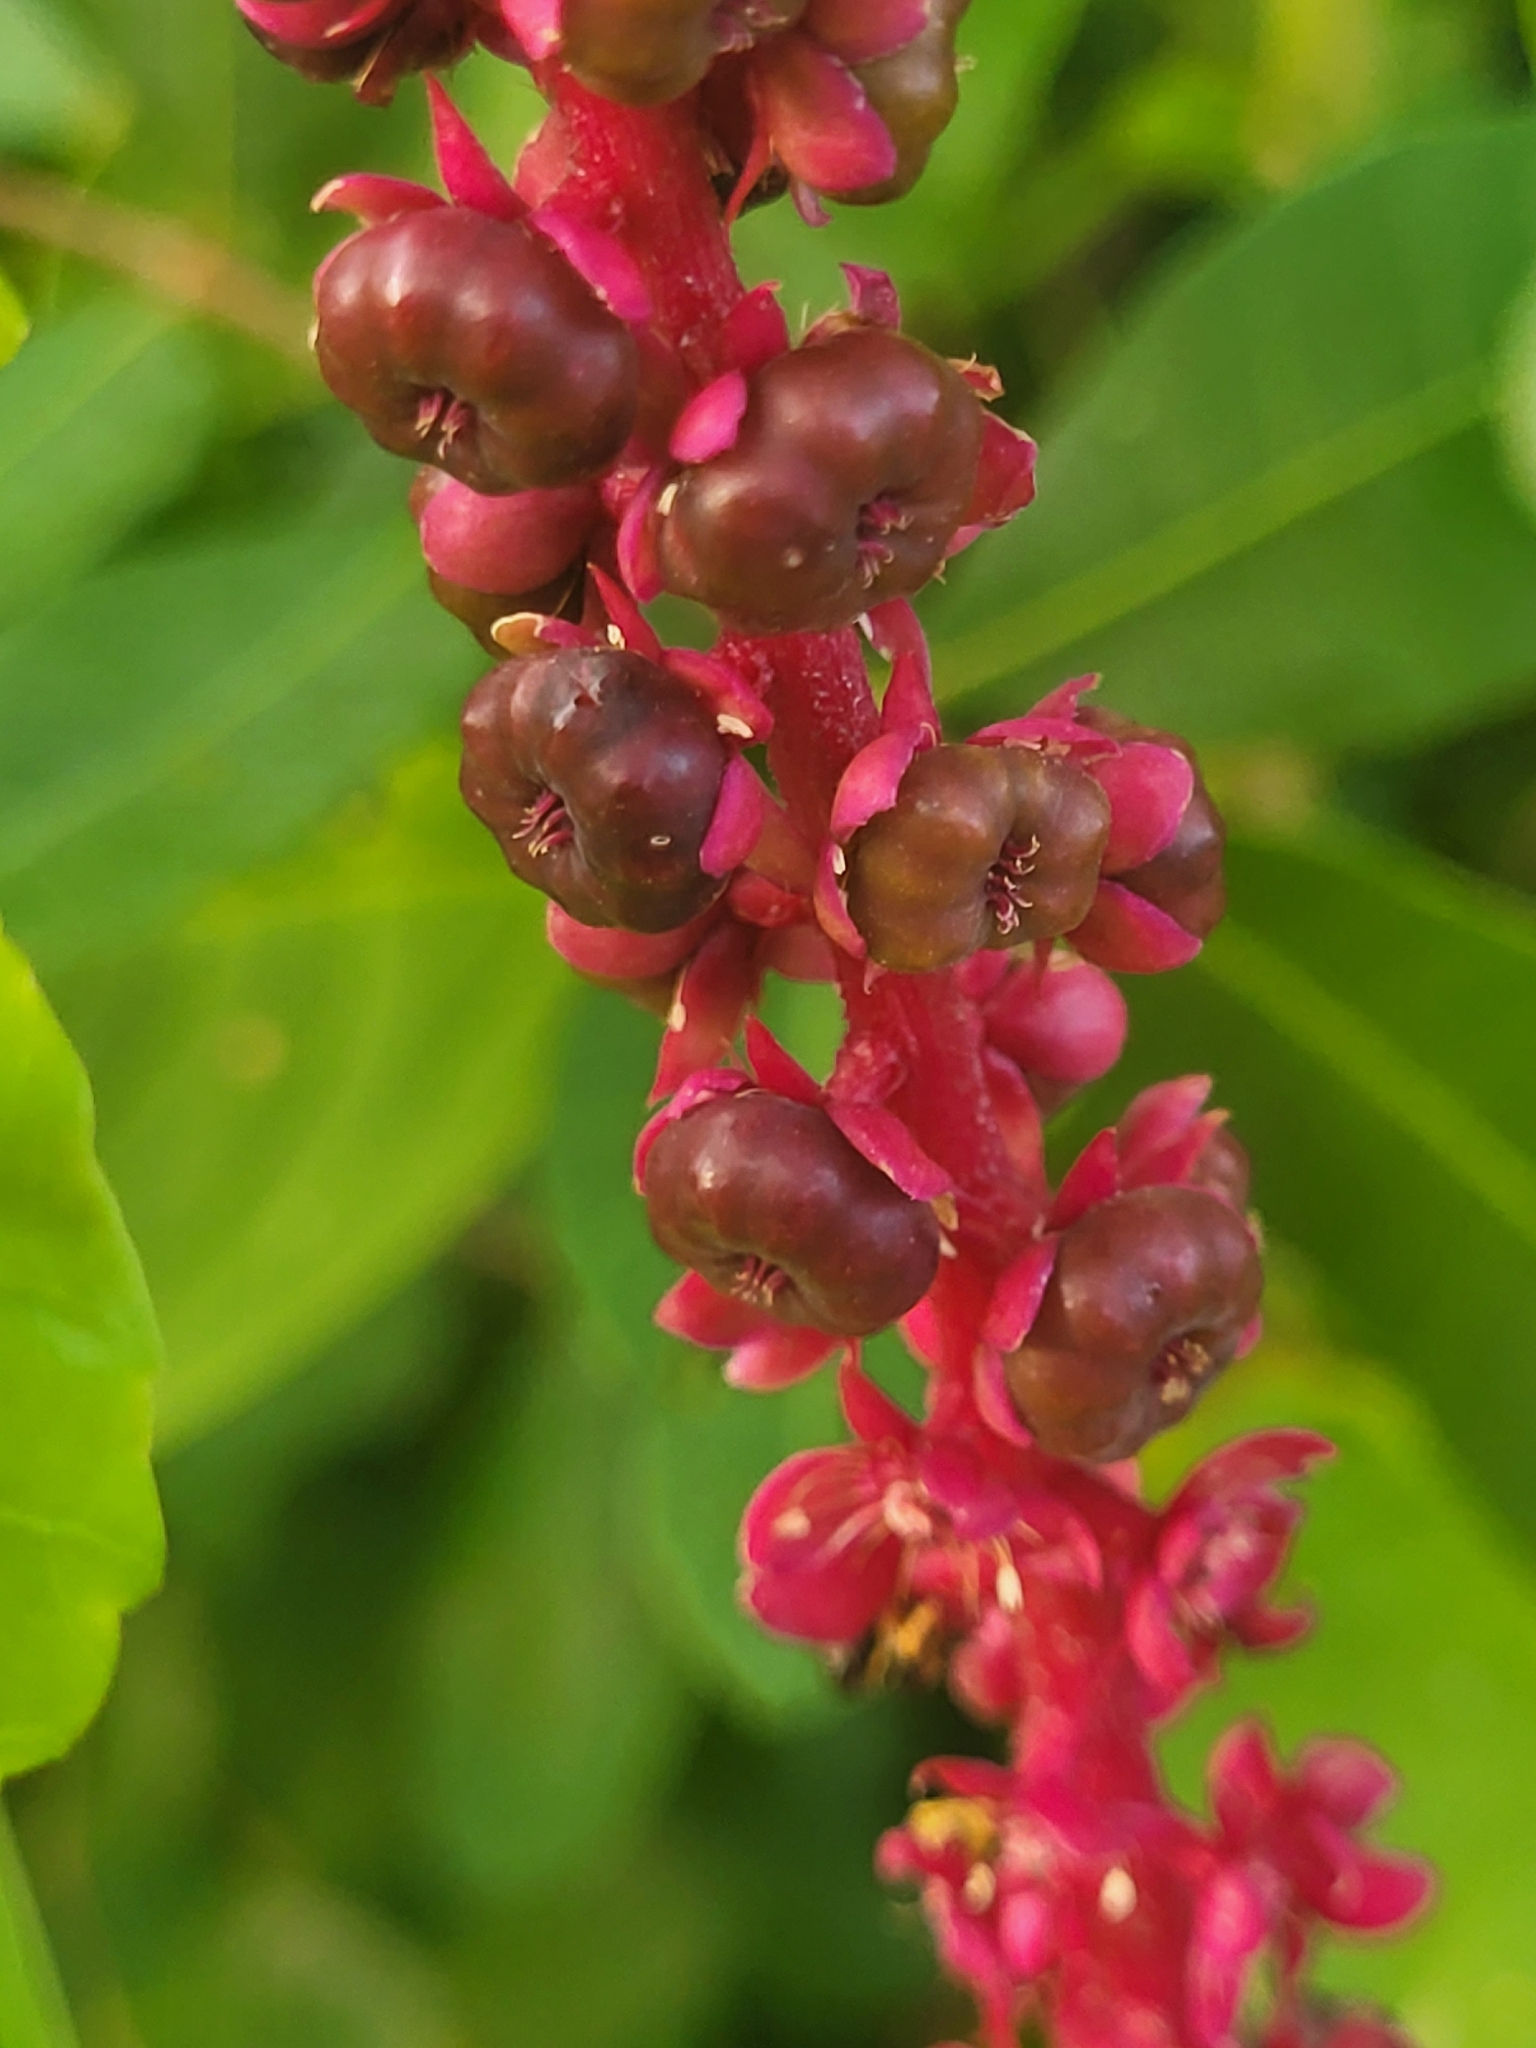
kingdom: Plantae
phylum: Tracheophyta
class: Magnoliopsida
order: Caryophyllales
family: Phytolaccaceae
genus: Phytolacca
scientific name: Phytolacca heterotepala
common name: Mexican pokeweed
